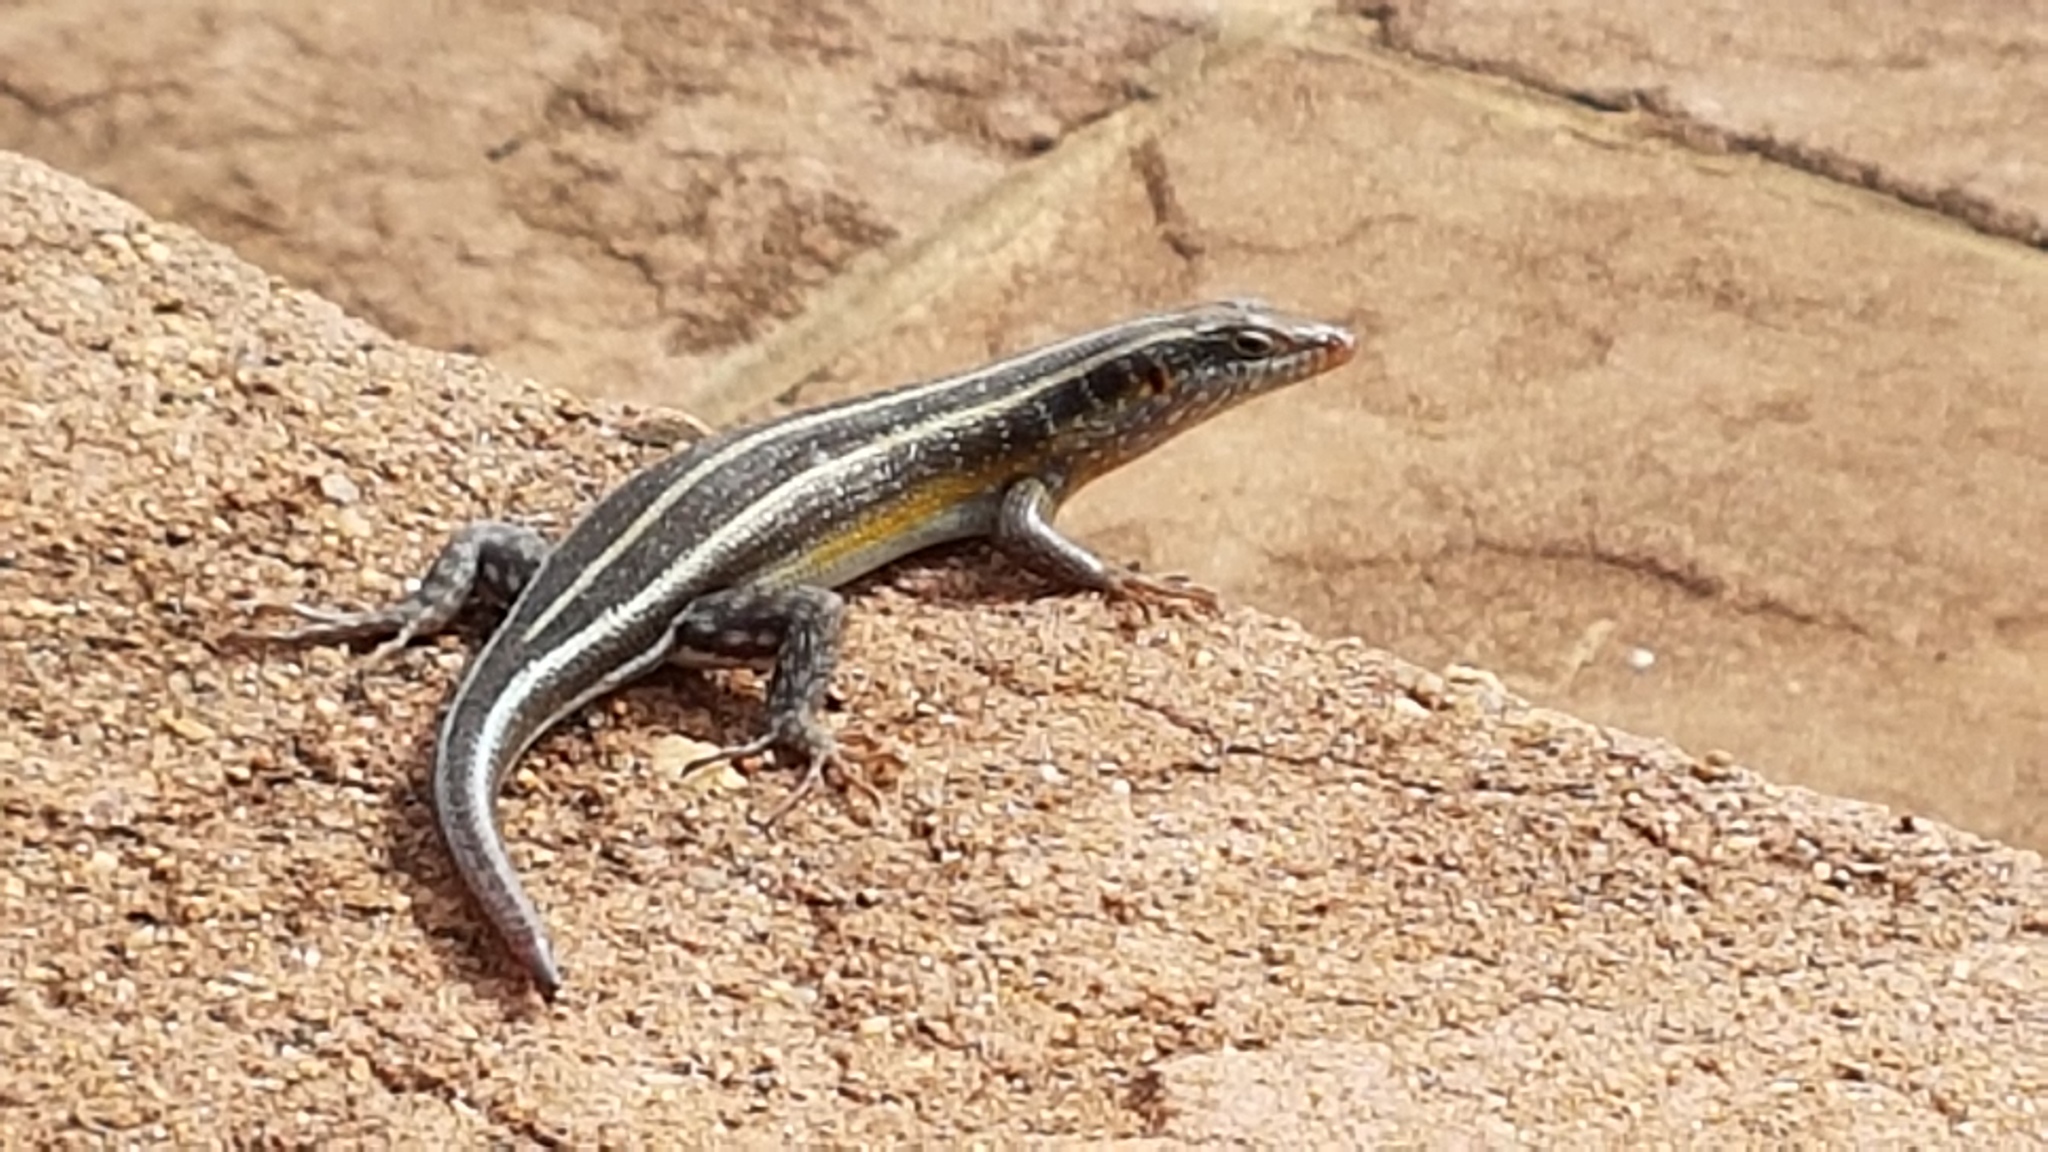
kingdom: Animalia
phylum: Chordata
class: Squamata
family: Scincidae
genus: Trachylepis
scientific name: Trachylepis margaritifera
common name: Rainbow skink
